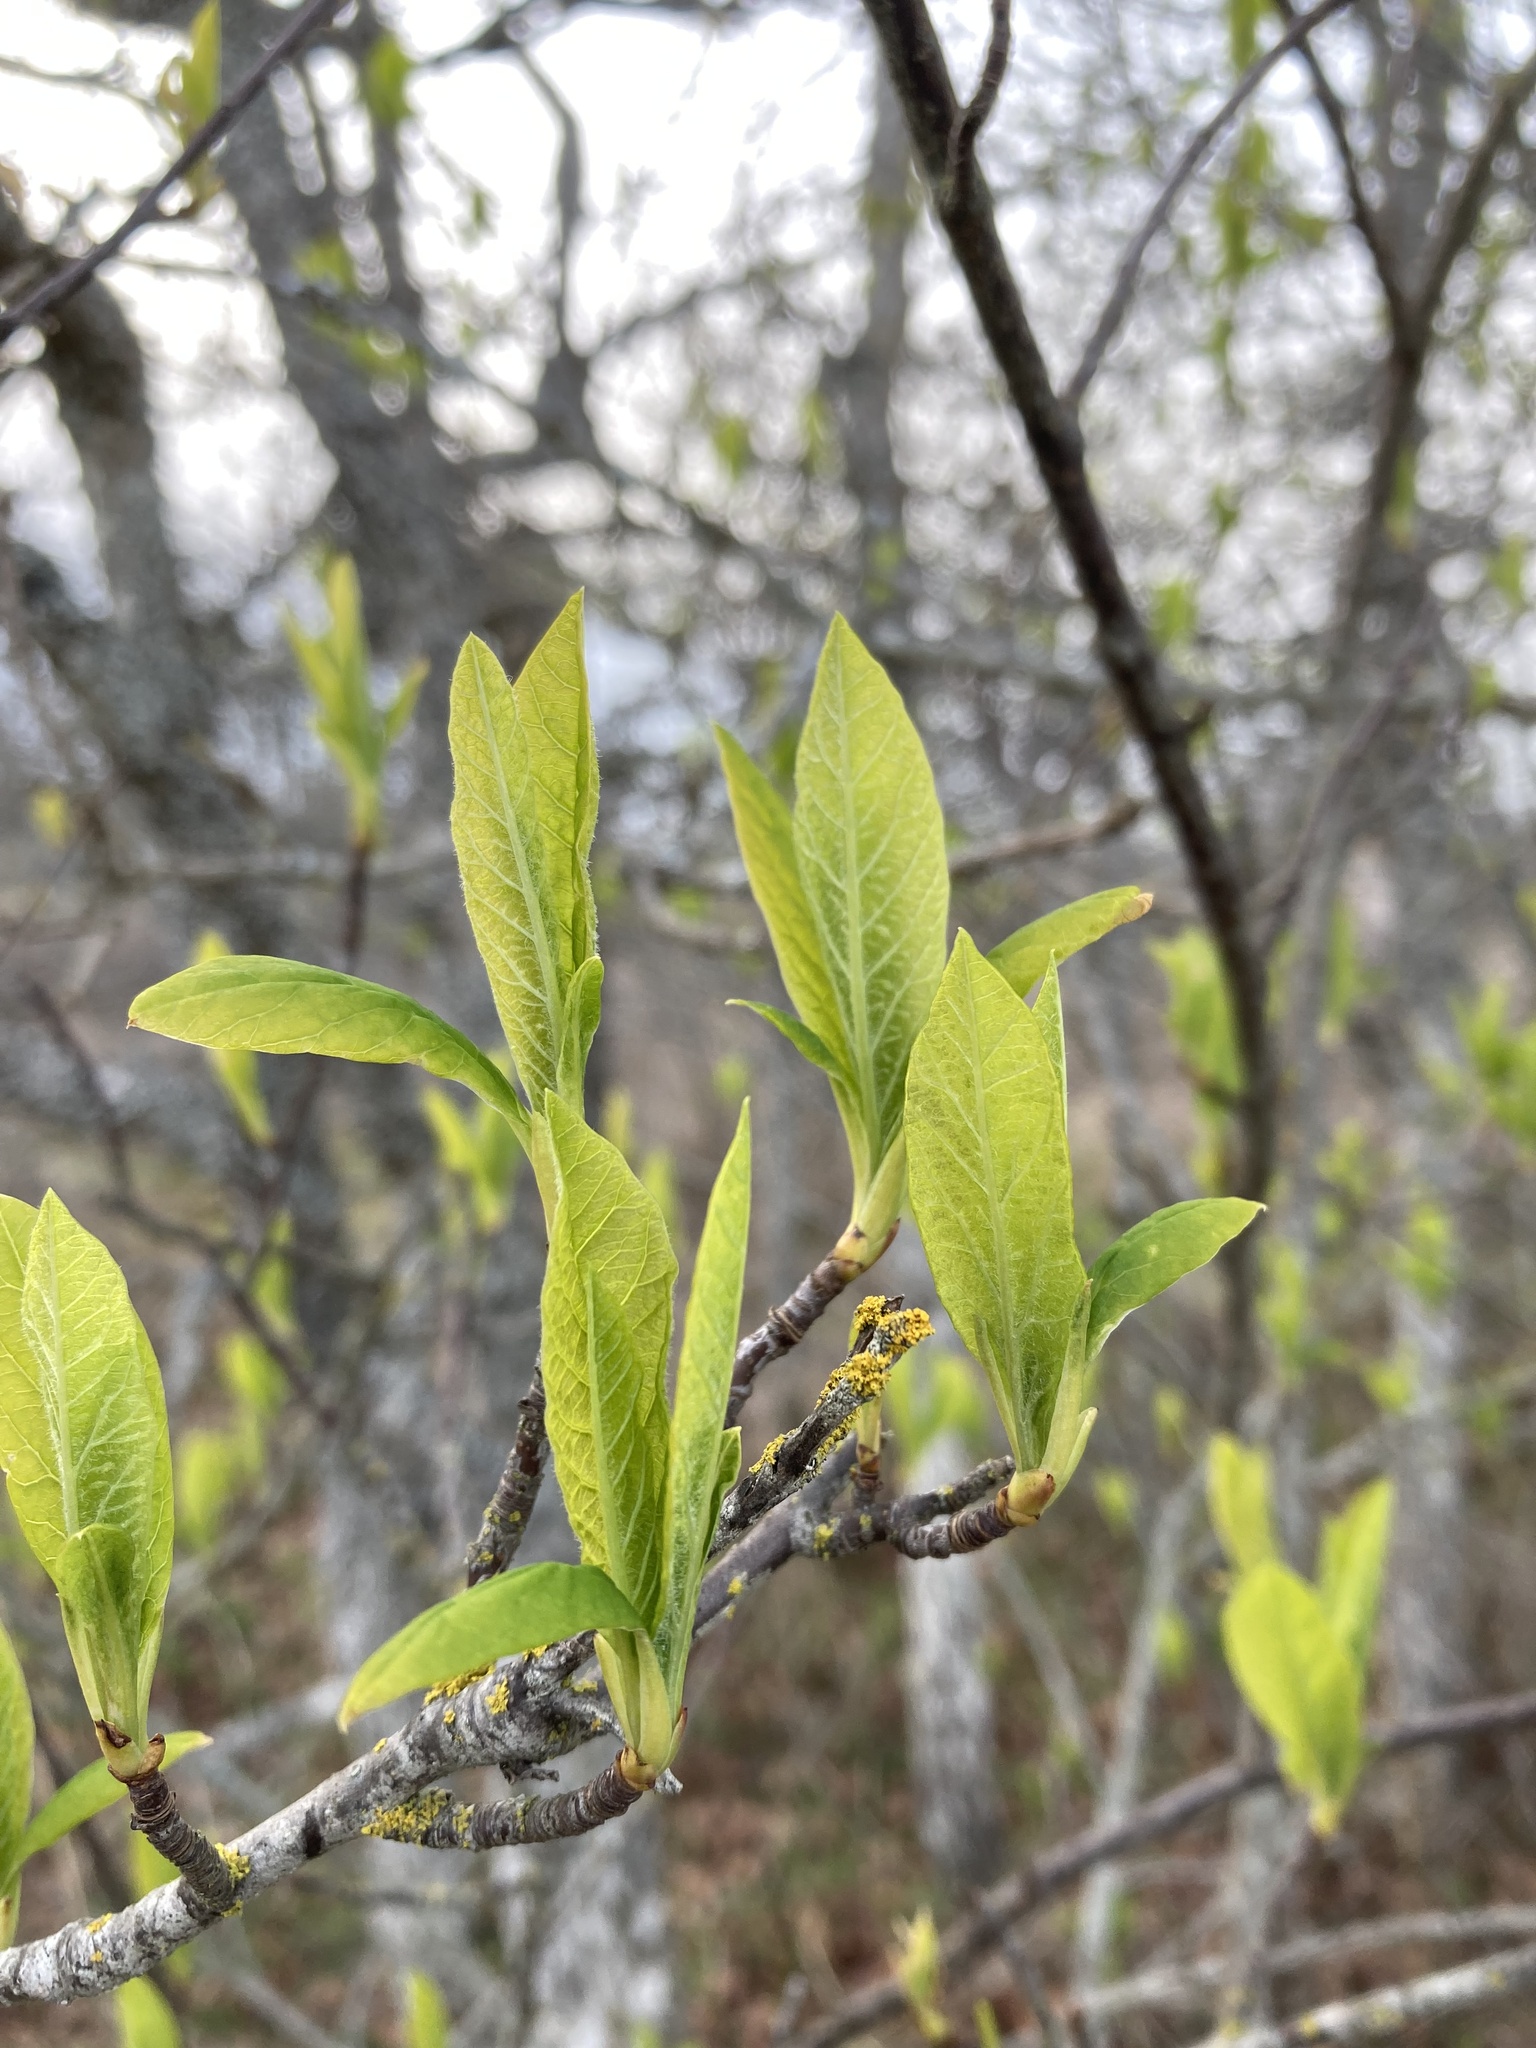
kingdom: Plantae
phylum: Tracheophyta
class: Magnoliopsida
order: Rosales
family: Rosaceae
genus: Oemleria
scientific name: Oemleria cerasiformis
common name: Osoberry
